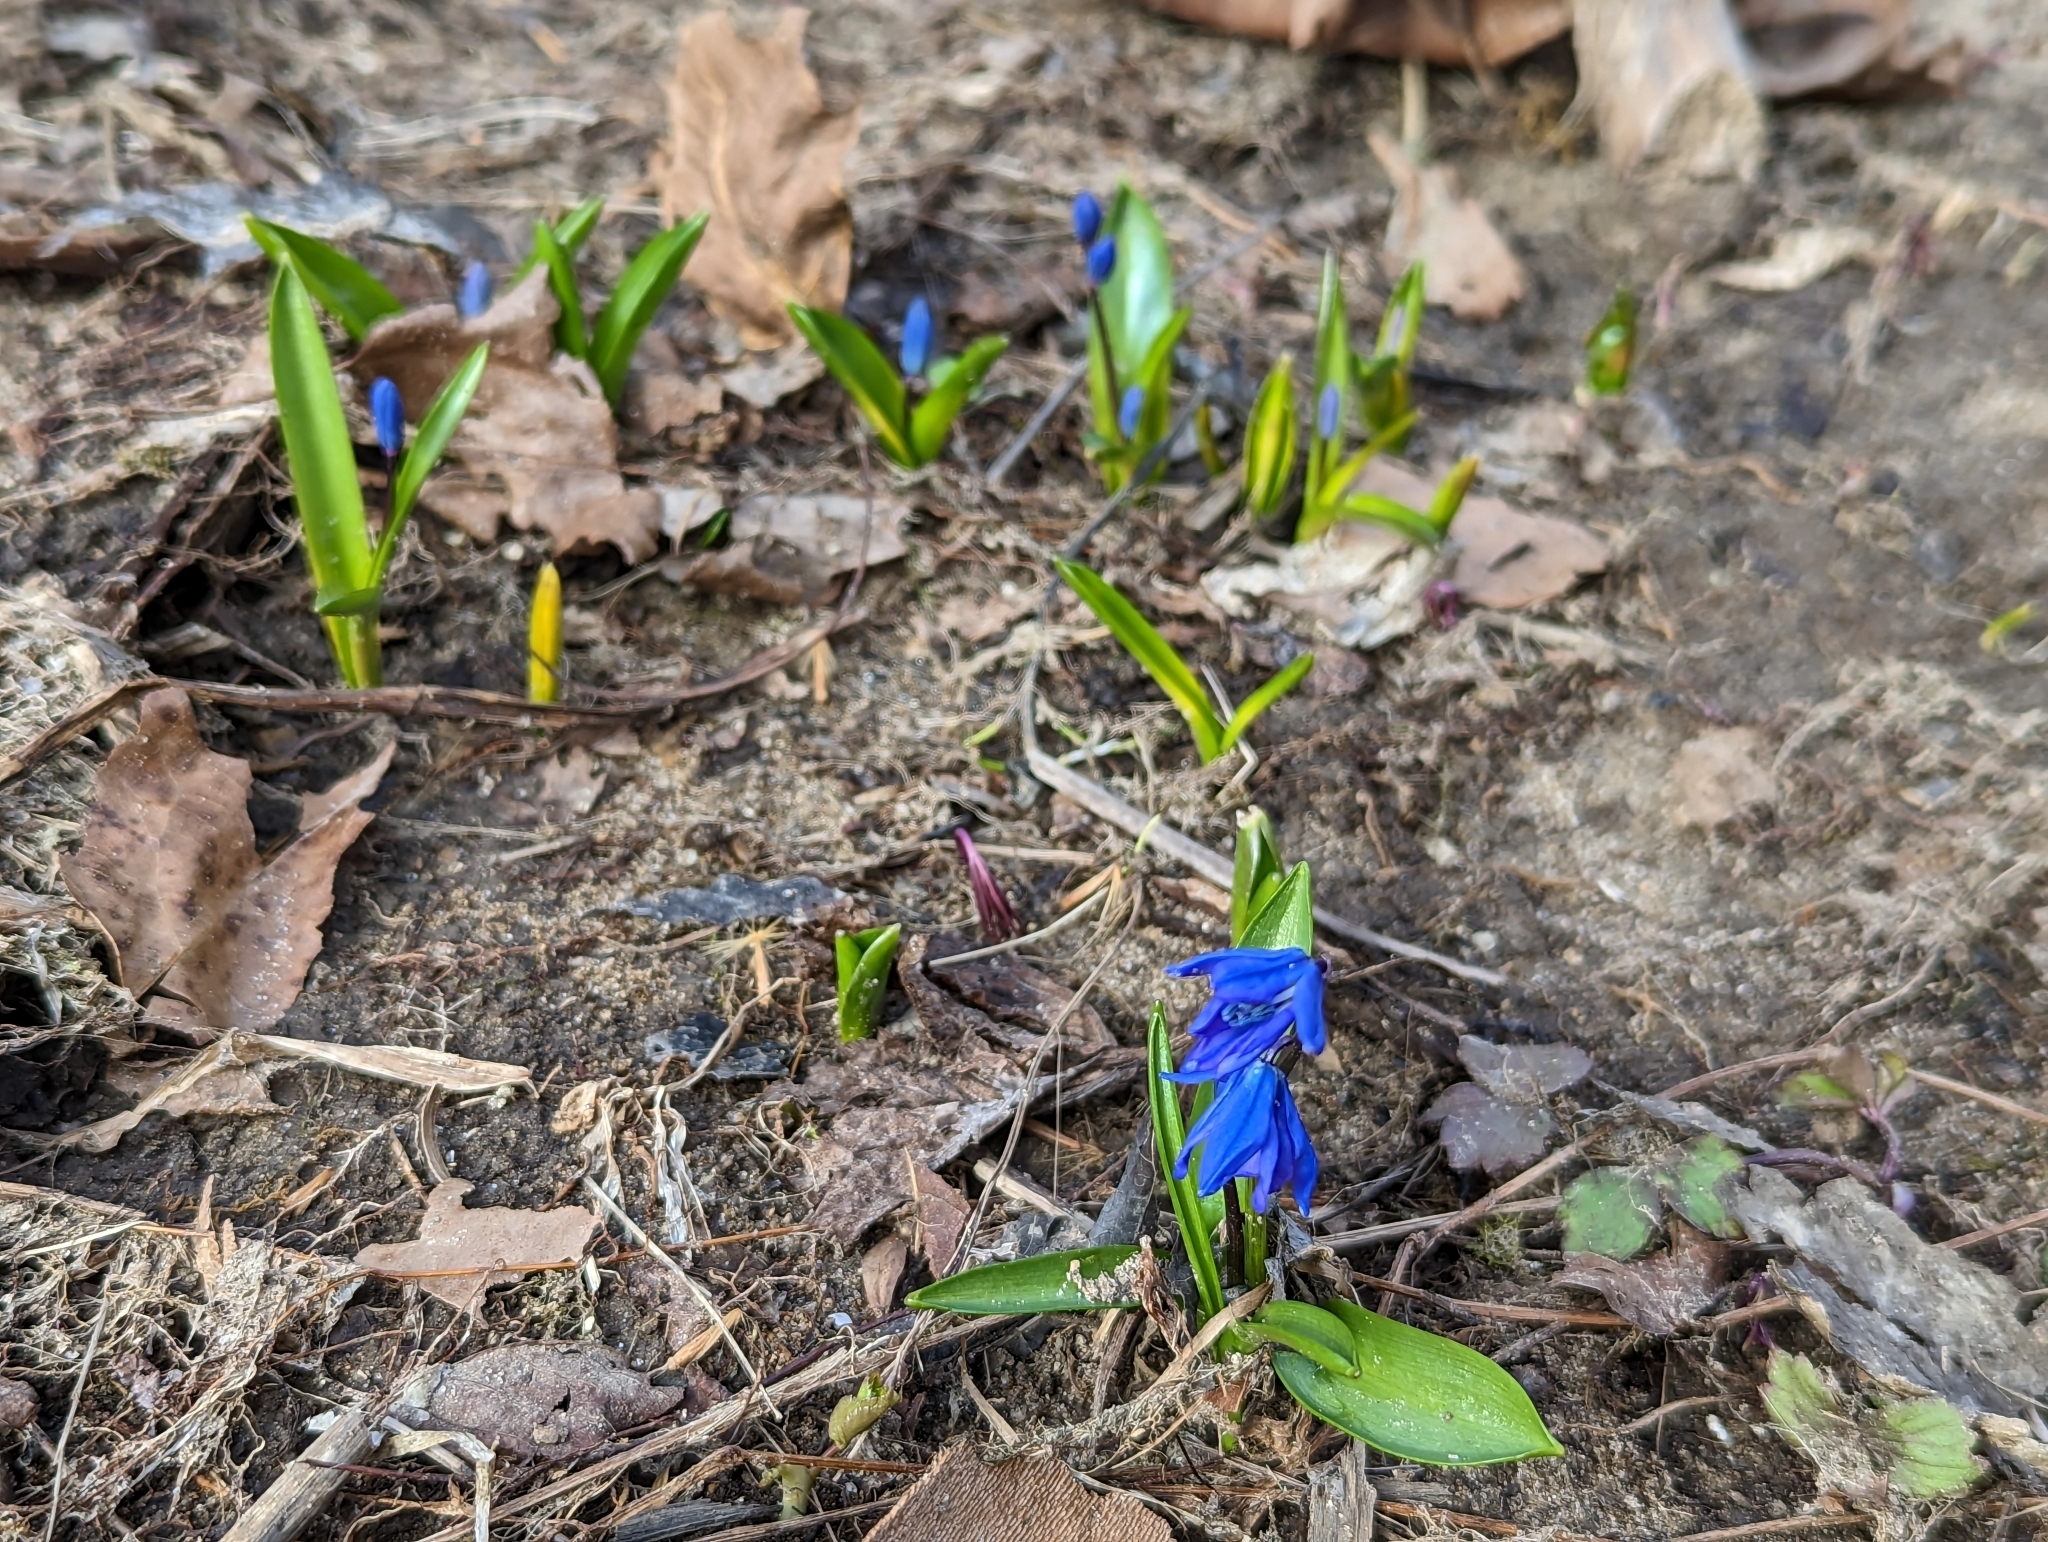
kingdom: Plantae
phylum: Tracheophyta
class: Liliopsida
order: Asparagales
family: Asparagaceae
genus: Scilla
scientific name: Scilla siberica
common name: Siberian squill
